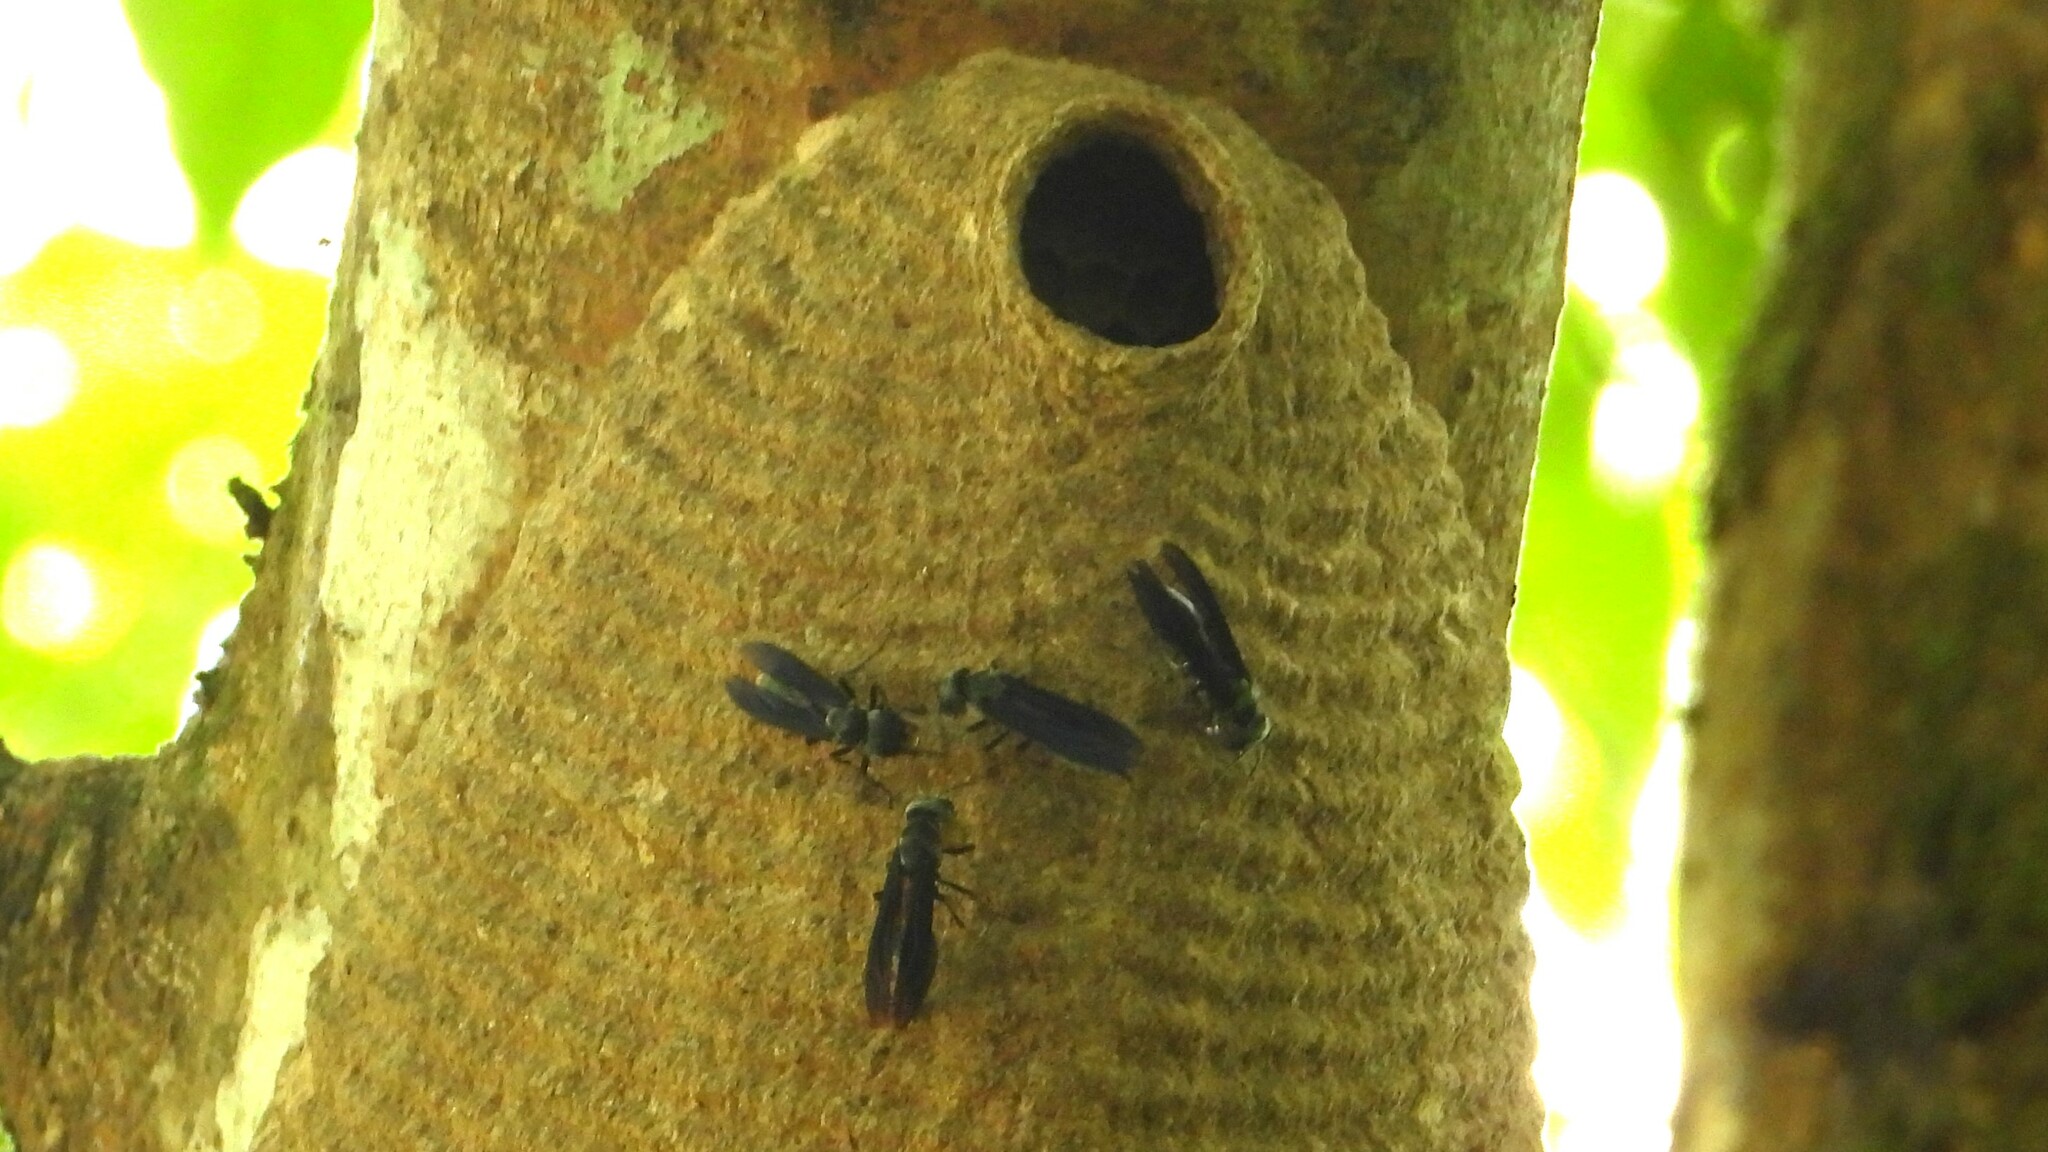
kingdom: Animalia
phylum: Arthropoda
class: Insecta
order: Hymenoptera
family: Vespidae
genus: Synoeca
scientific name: Synoeca septentrionalis
